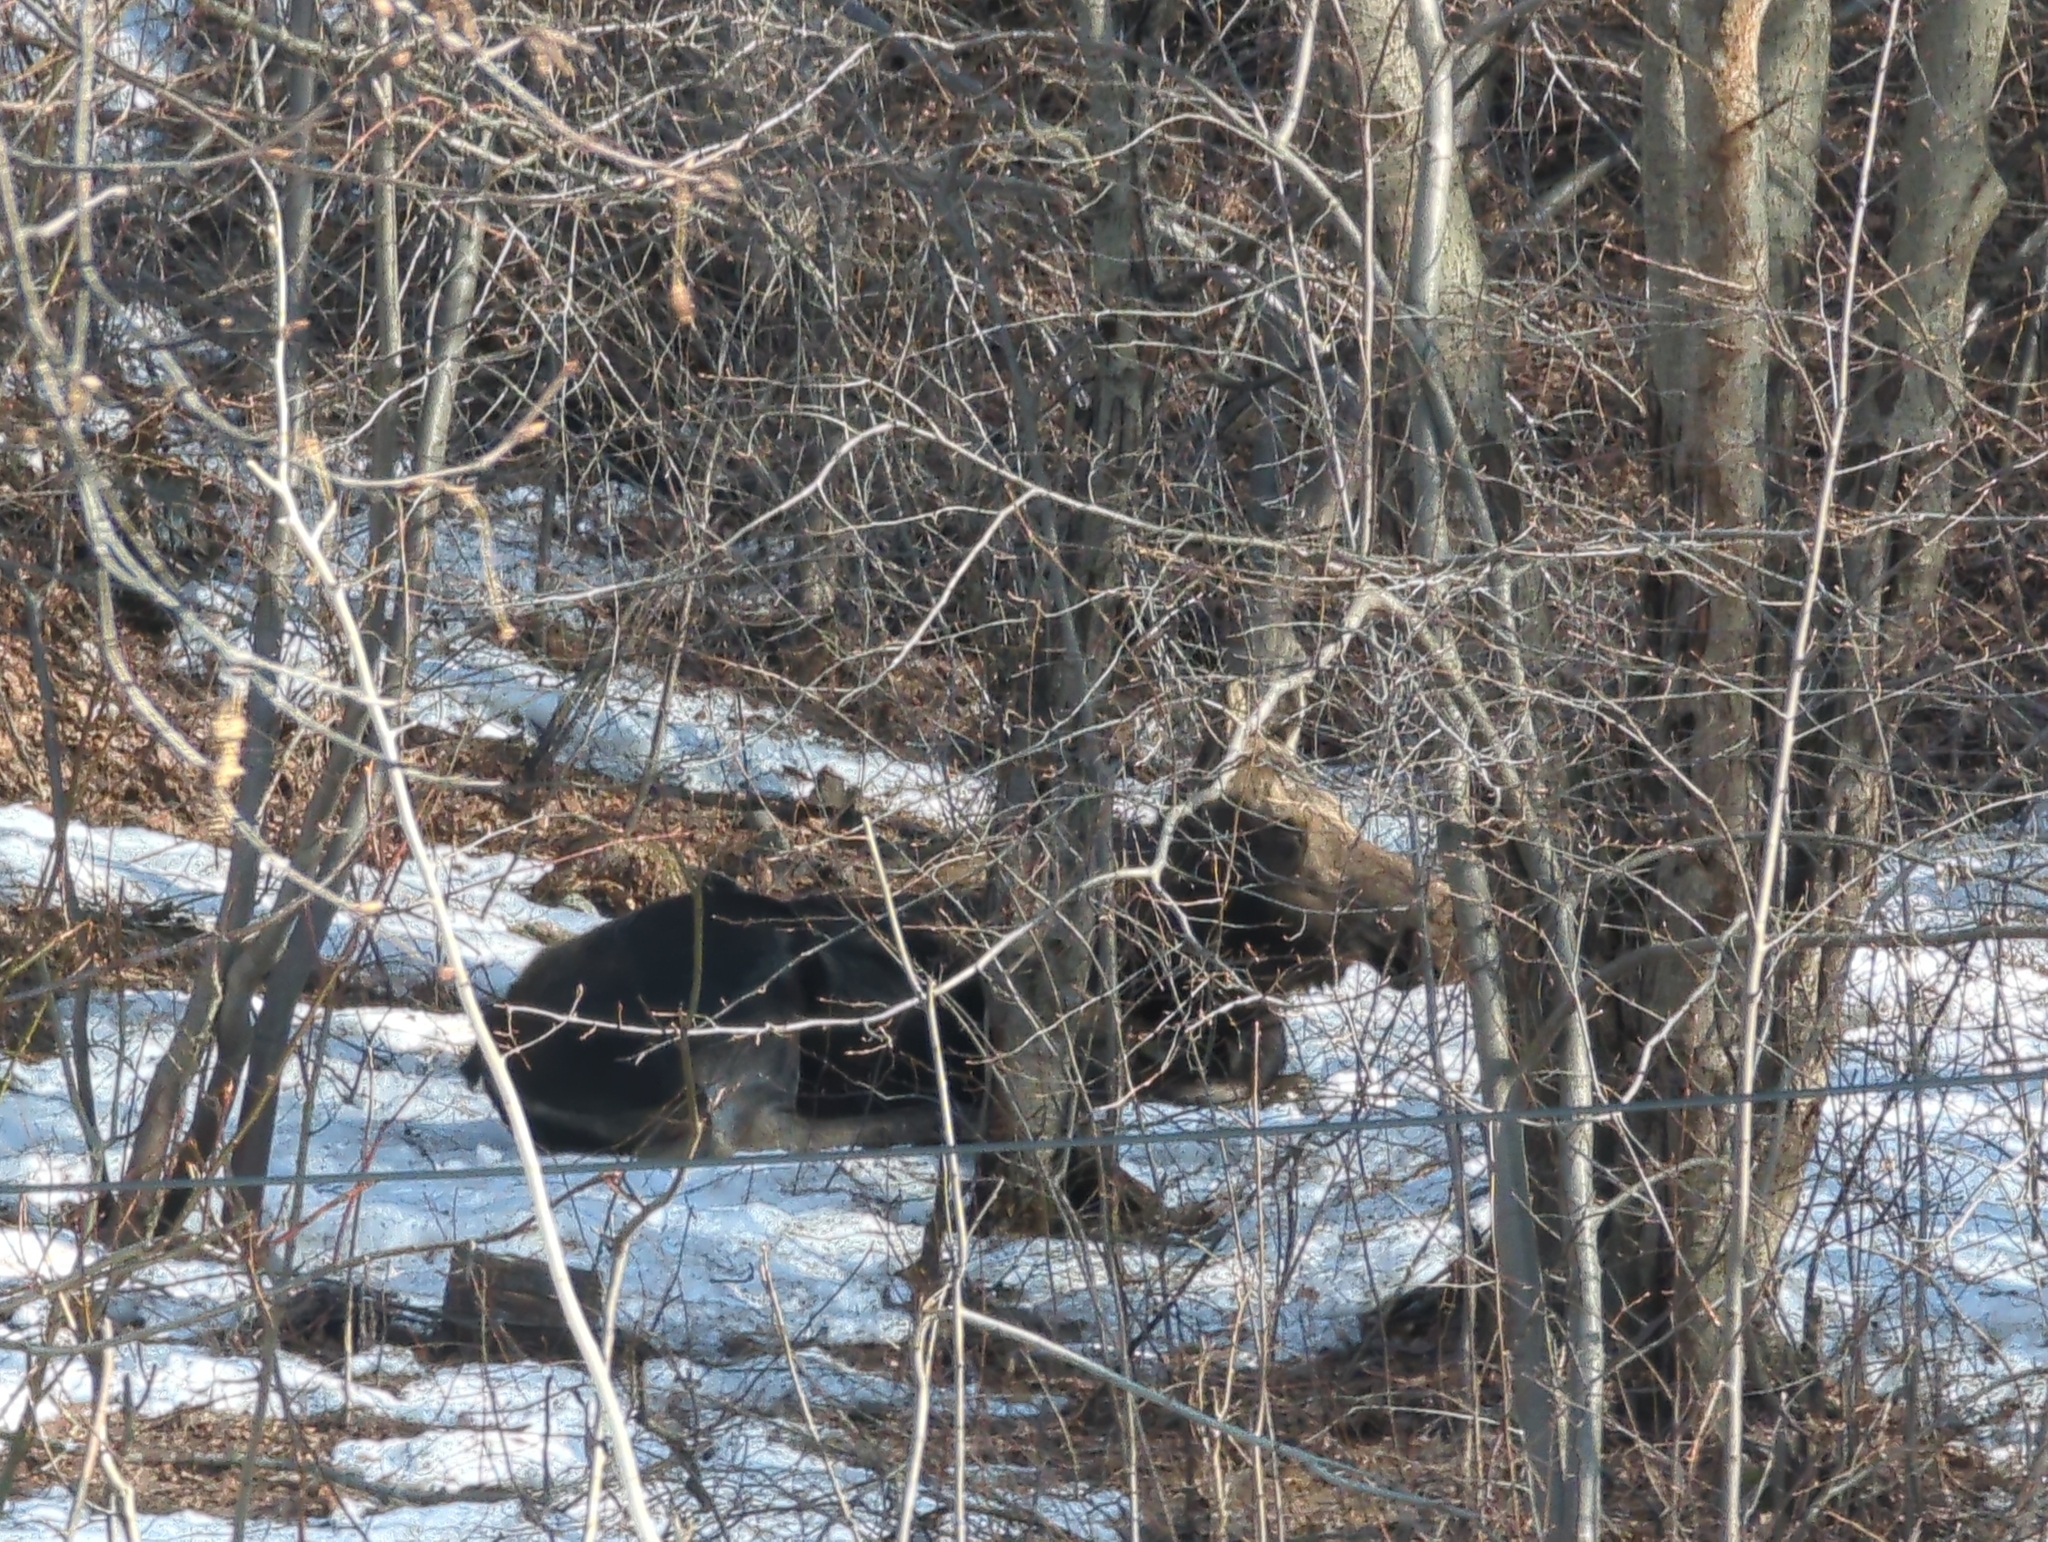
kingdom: Animalia
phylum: Chordata
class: Mammalia
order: Artiodactyla
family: Cervidae
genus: Alces
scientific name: Alces alces
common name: Moose
